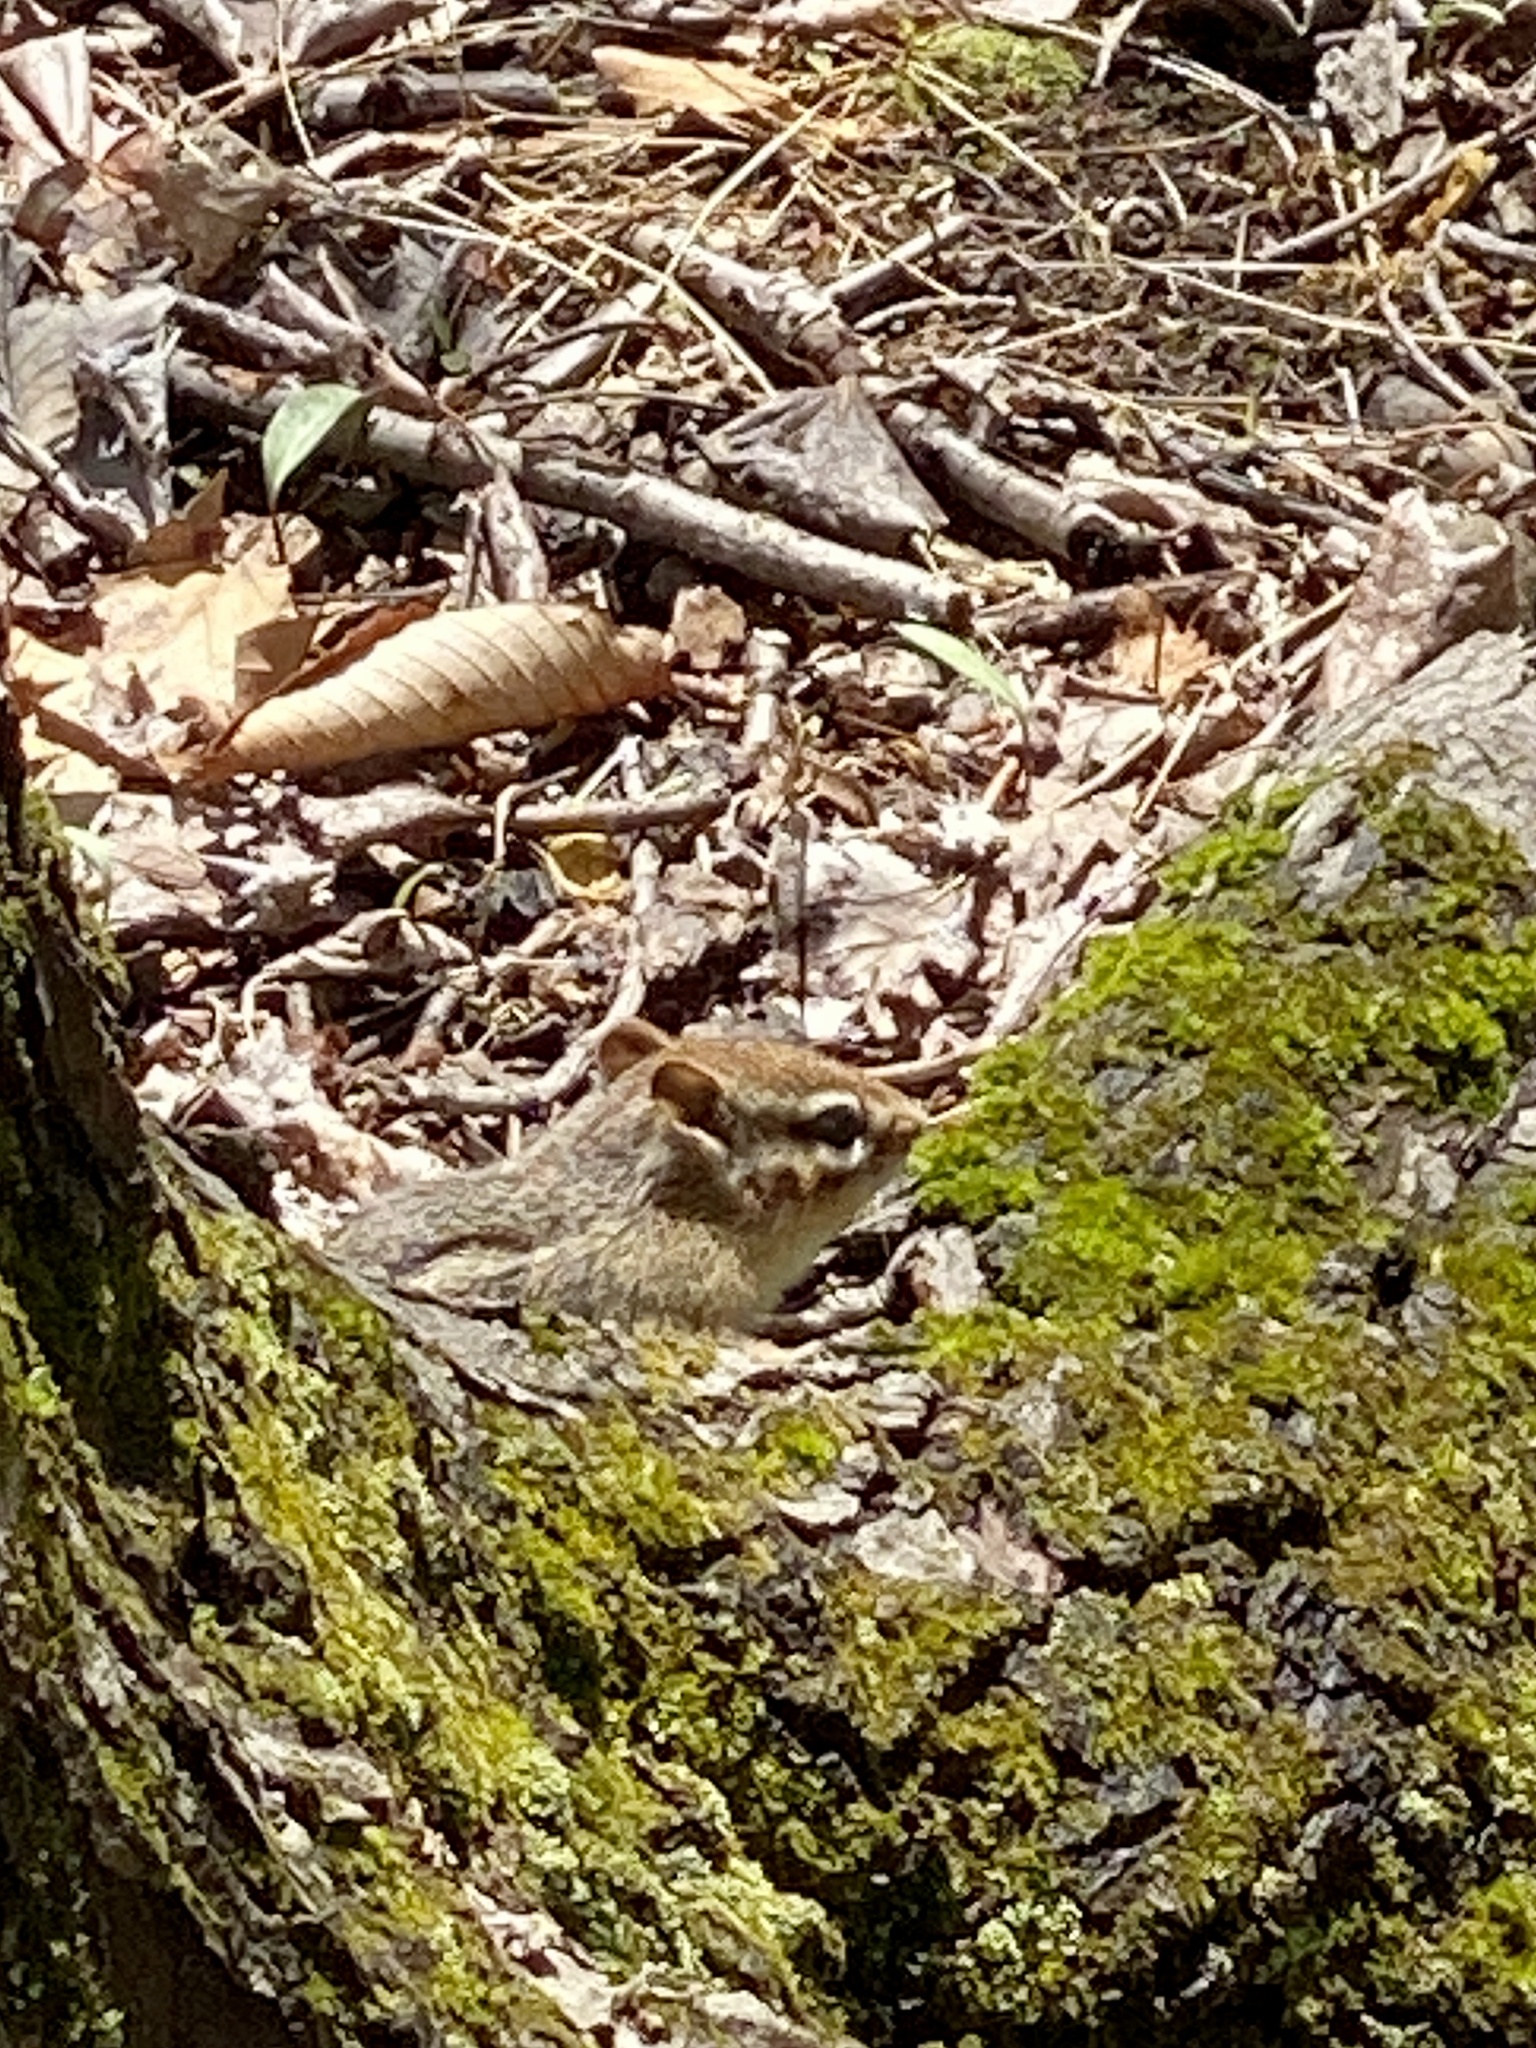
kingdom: Animalia
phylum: Chordata
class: Mammalia
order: Rodentia
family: Sciuridae
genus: Tamias
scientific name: Tamias striatus
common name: Eastern chipmunk
